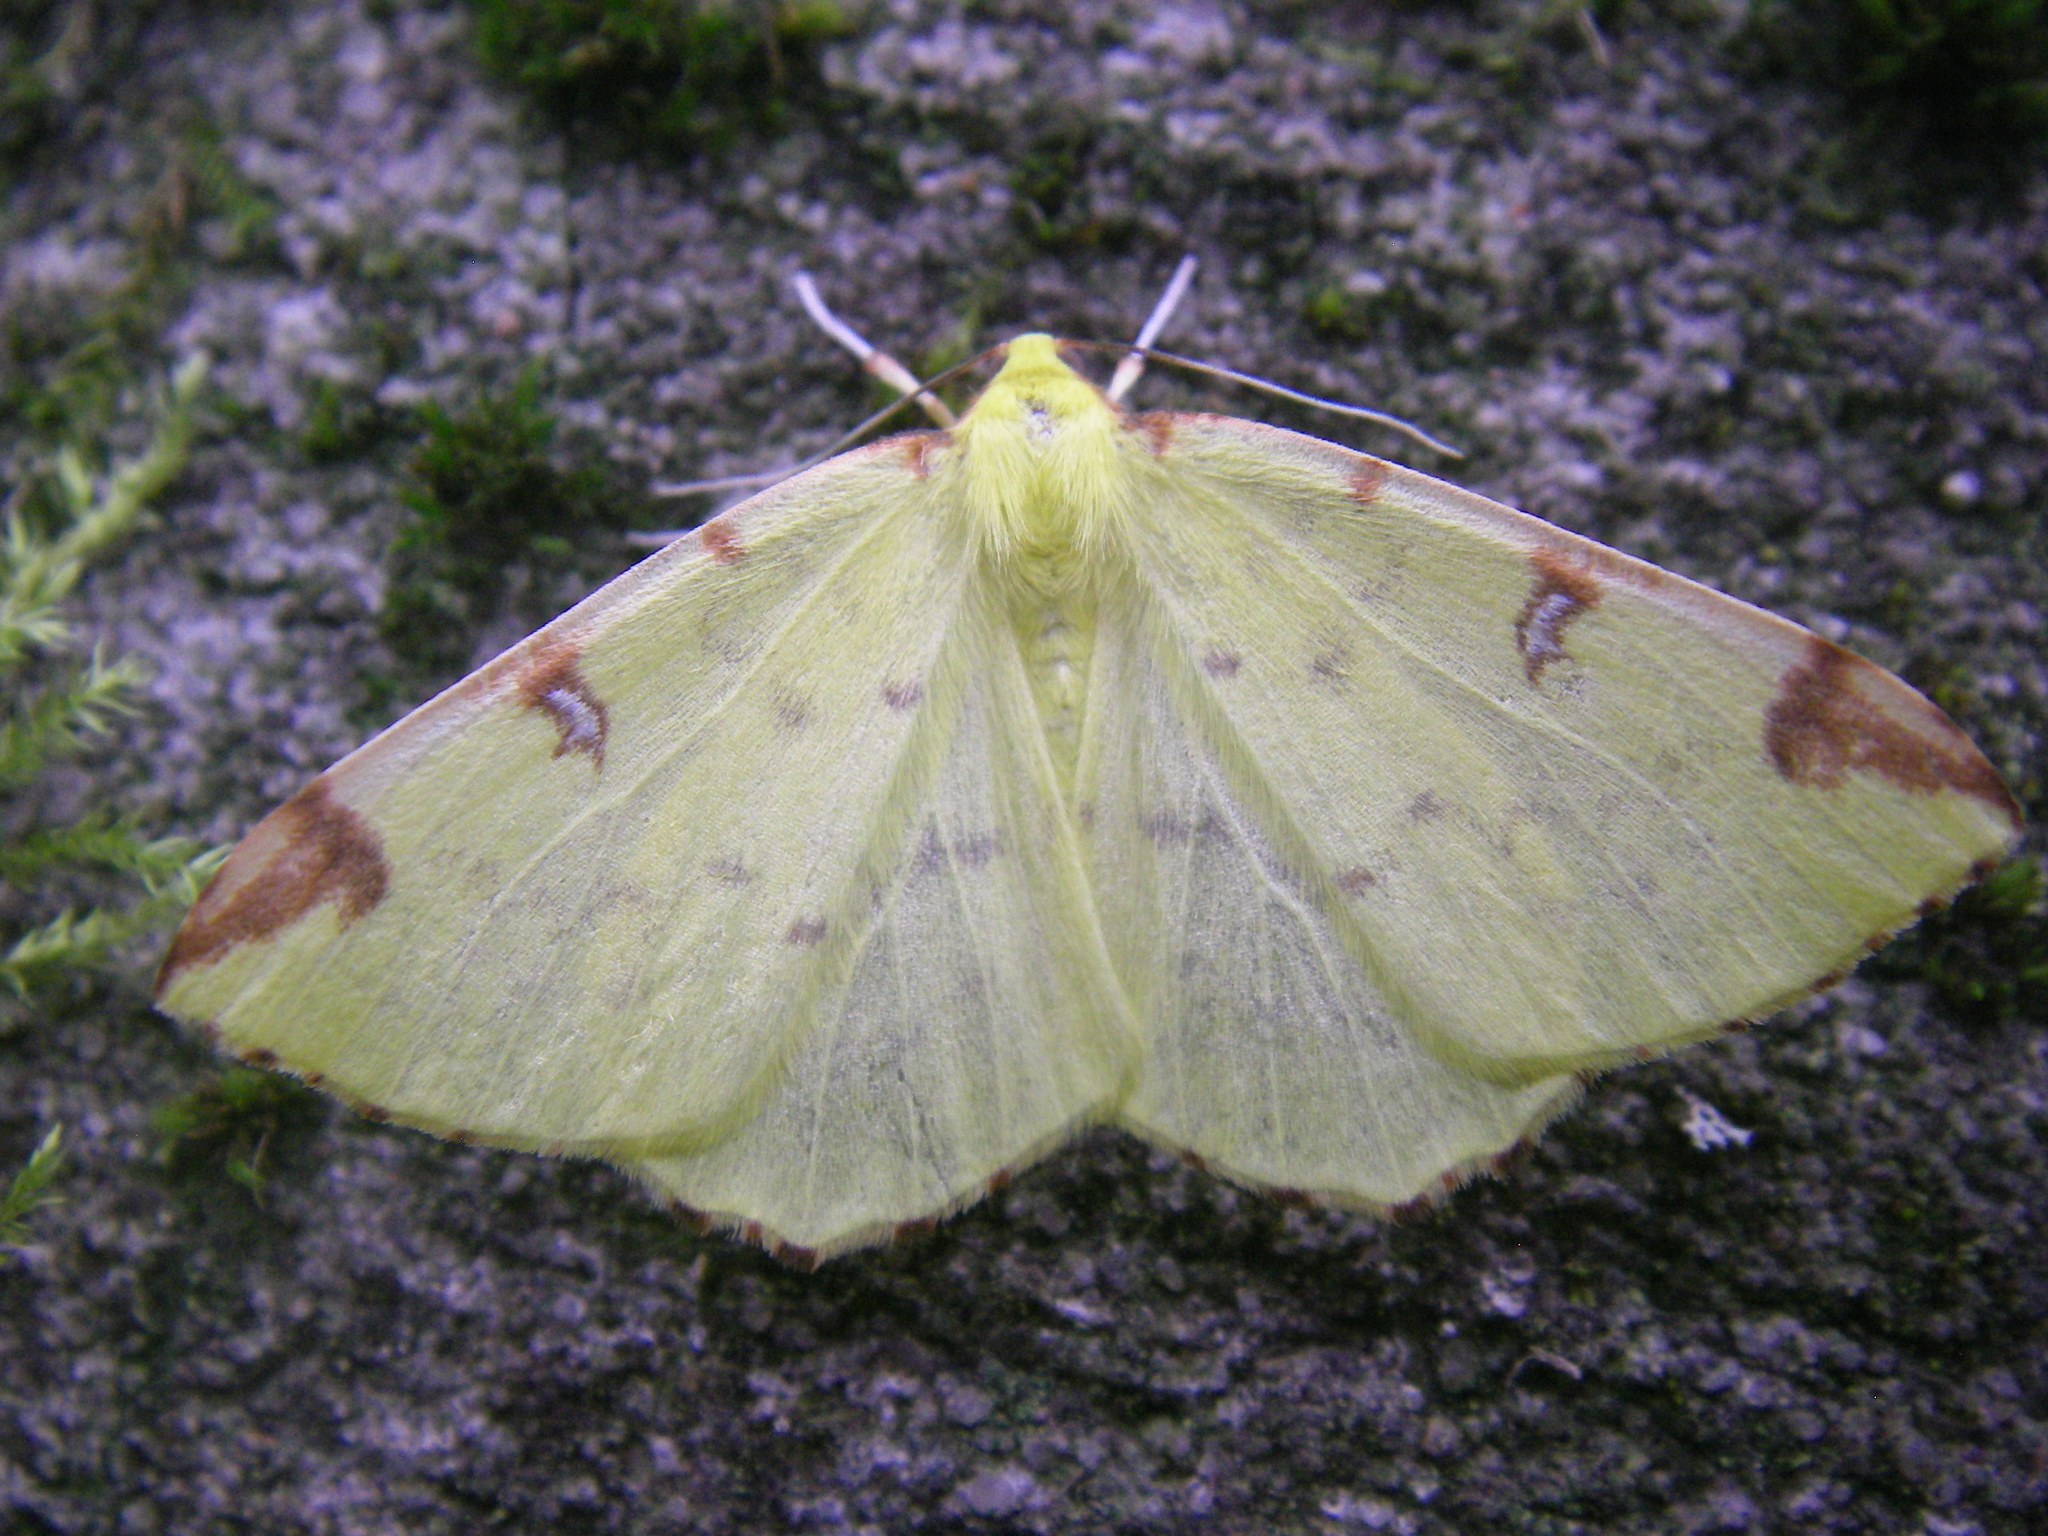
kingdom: Animalia
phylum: Arthropoda
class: Insecta
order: Lepidoptera
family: Geometridae
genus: Opisthograptis
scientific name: Opisthograptis luteolata
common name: Brimstone moth
